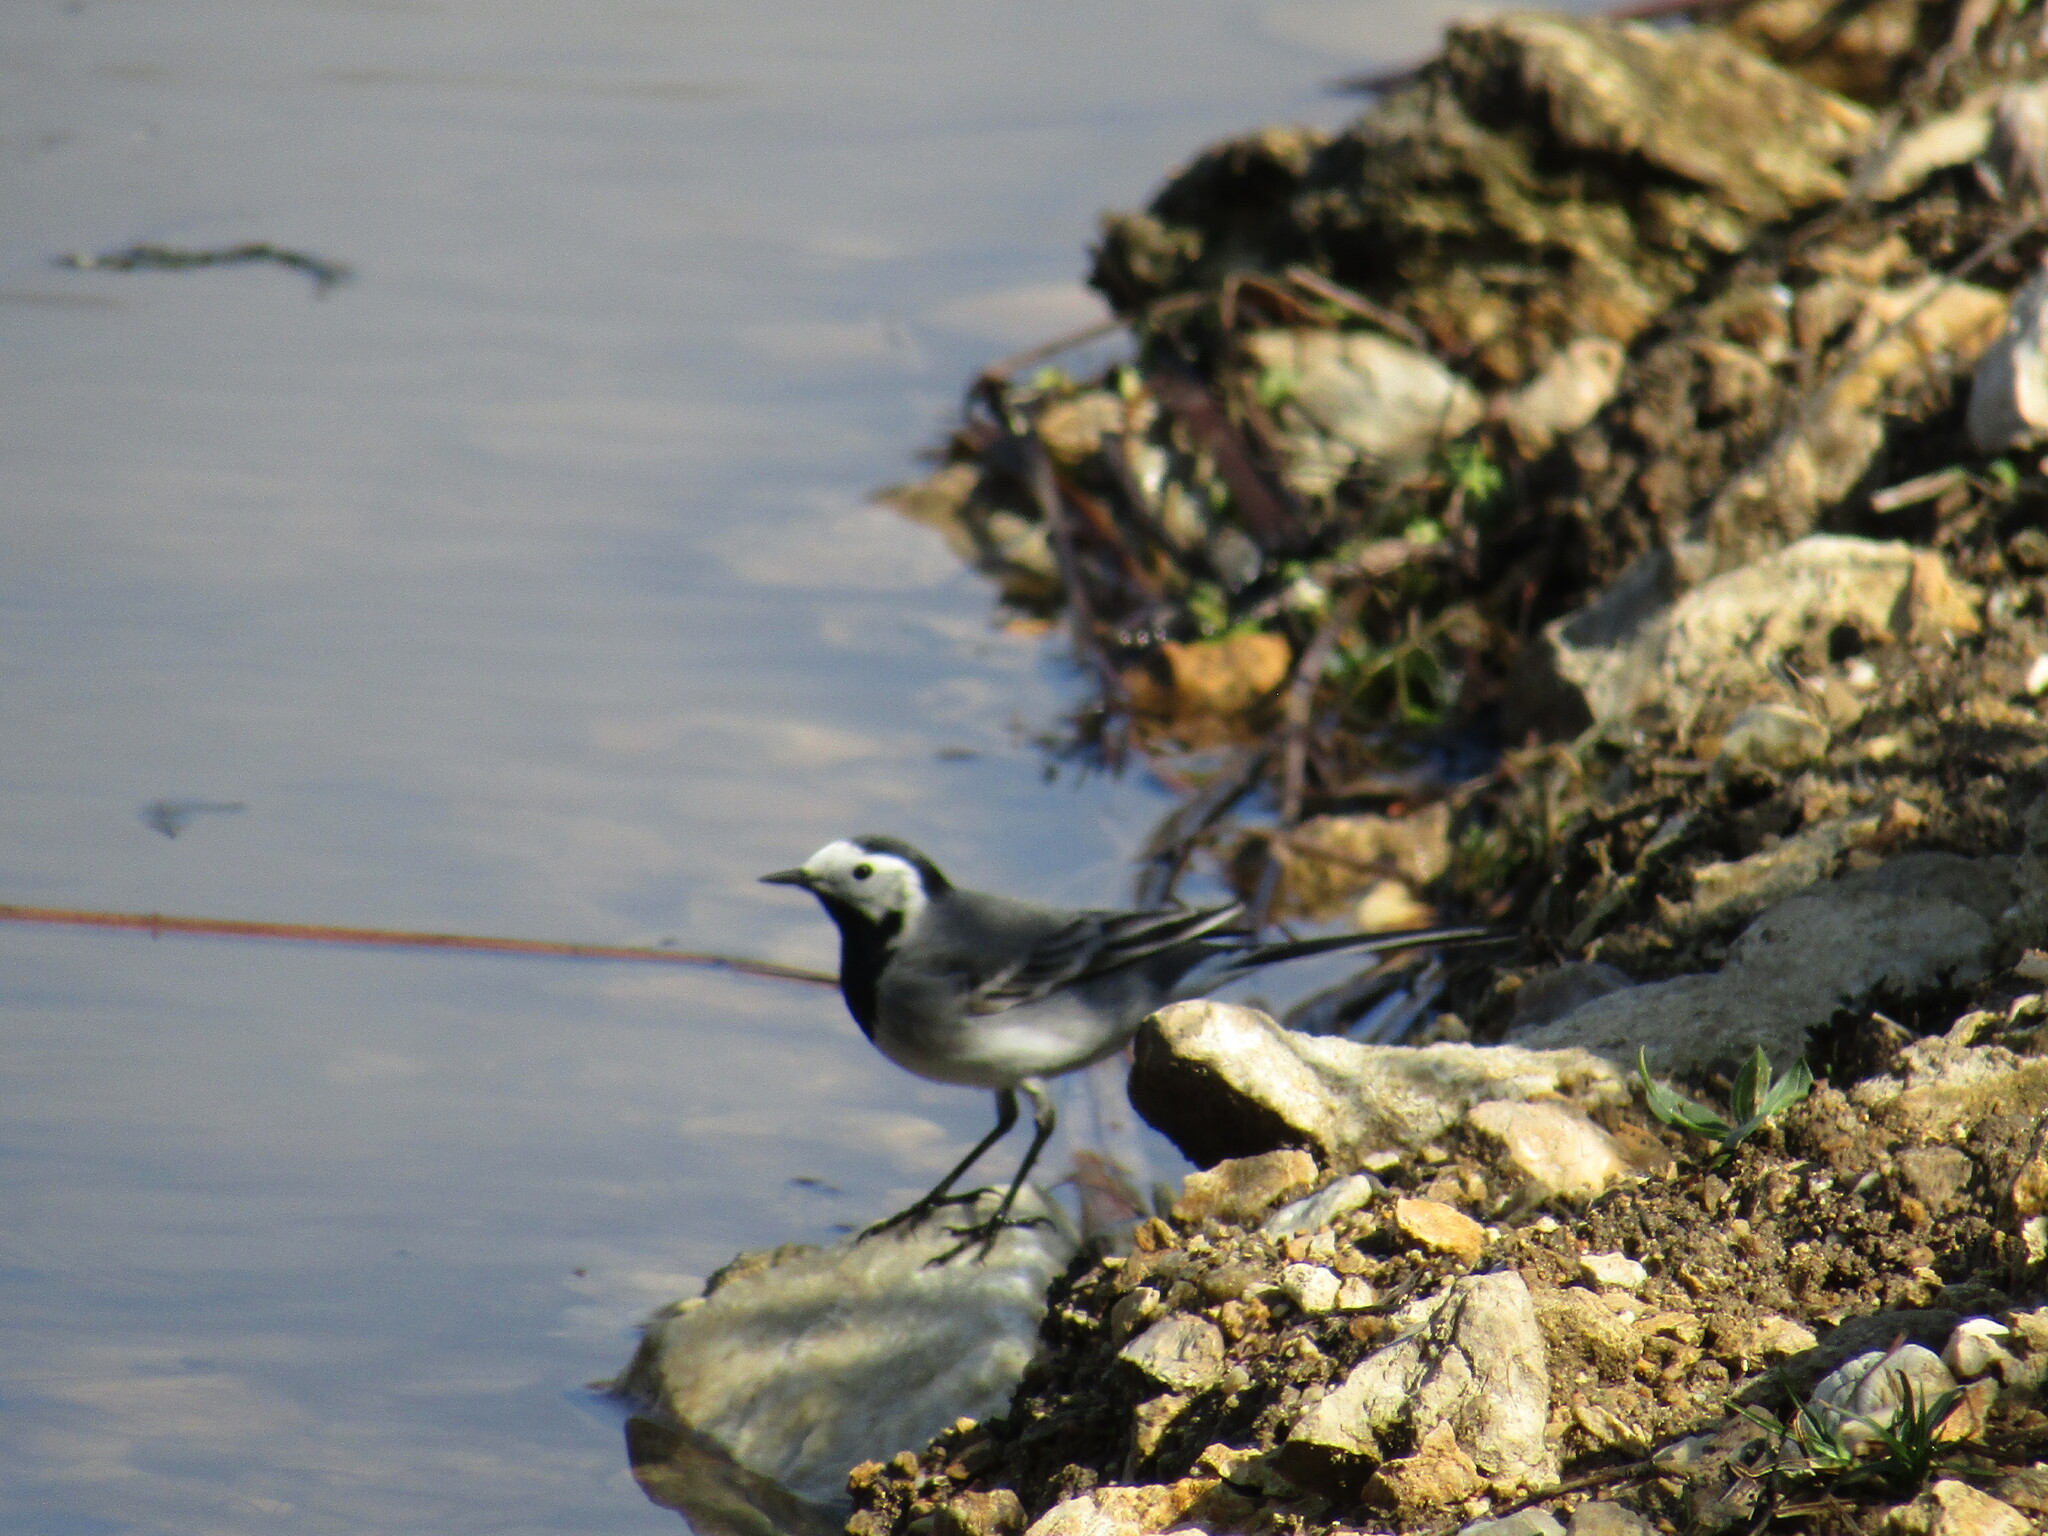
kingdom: Animalia
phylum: Chordata
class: Aves
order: Passeriformes
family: Motacillidae
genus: Motacilla
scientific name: Motacilla alba
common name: White wagtail
